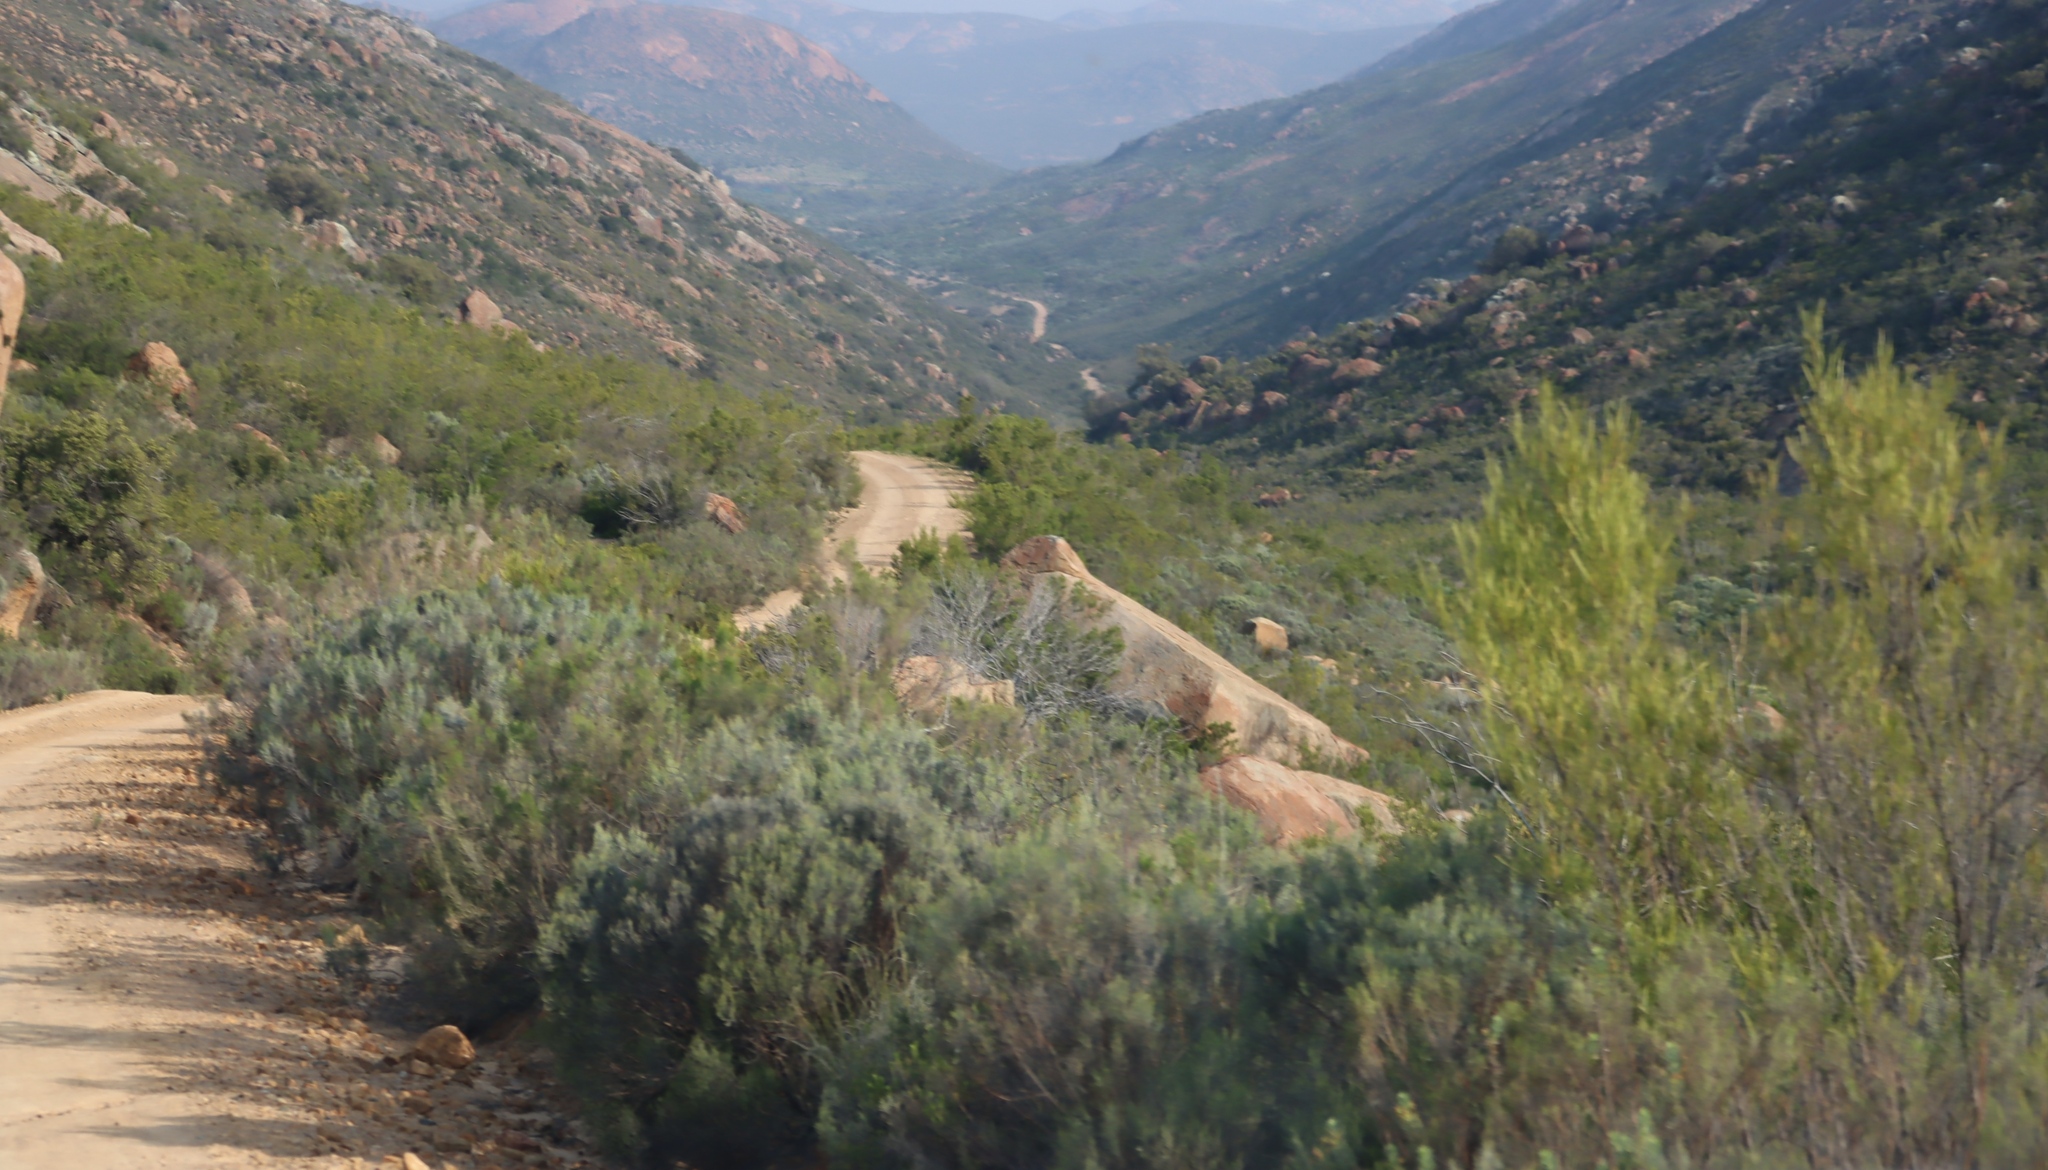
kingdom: Plantae
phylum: Tracheophyta
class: Magnoliopsida
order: Asterales
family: Asteraceae
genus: Dicerothamnus
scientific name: Dicerothamnus rhinocerotis
